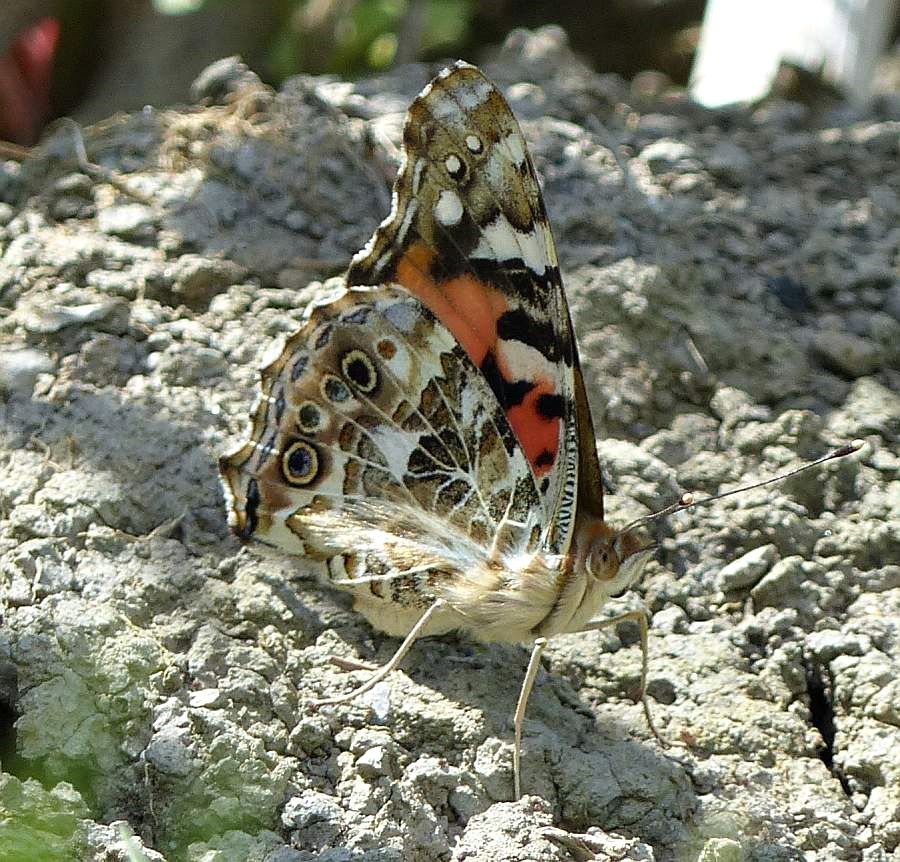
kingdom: Animalia
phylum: Arthropoda
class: Insecta
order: Lepidoptera
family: Nymphalidae
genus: Vanessa
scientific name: Vanessa cardui
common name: Painted lady
